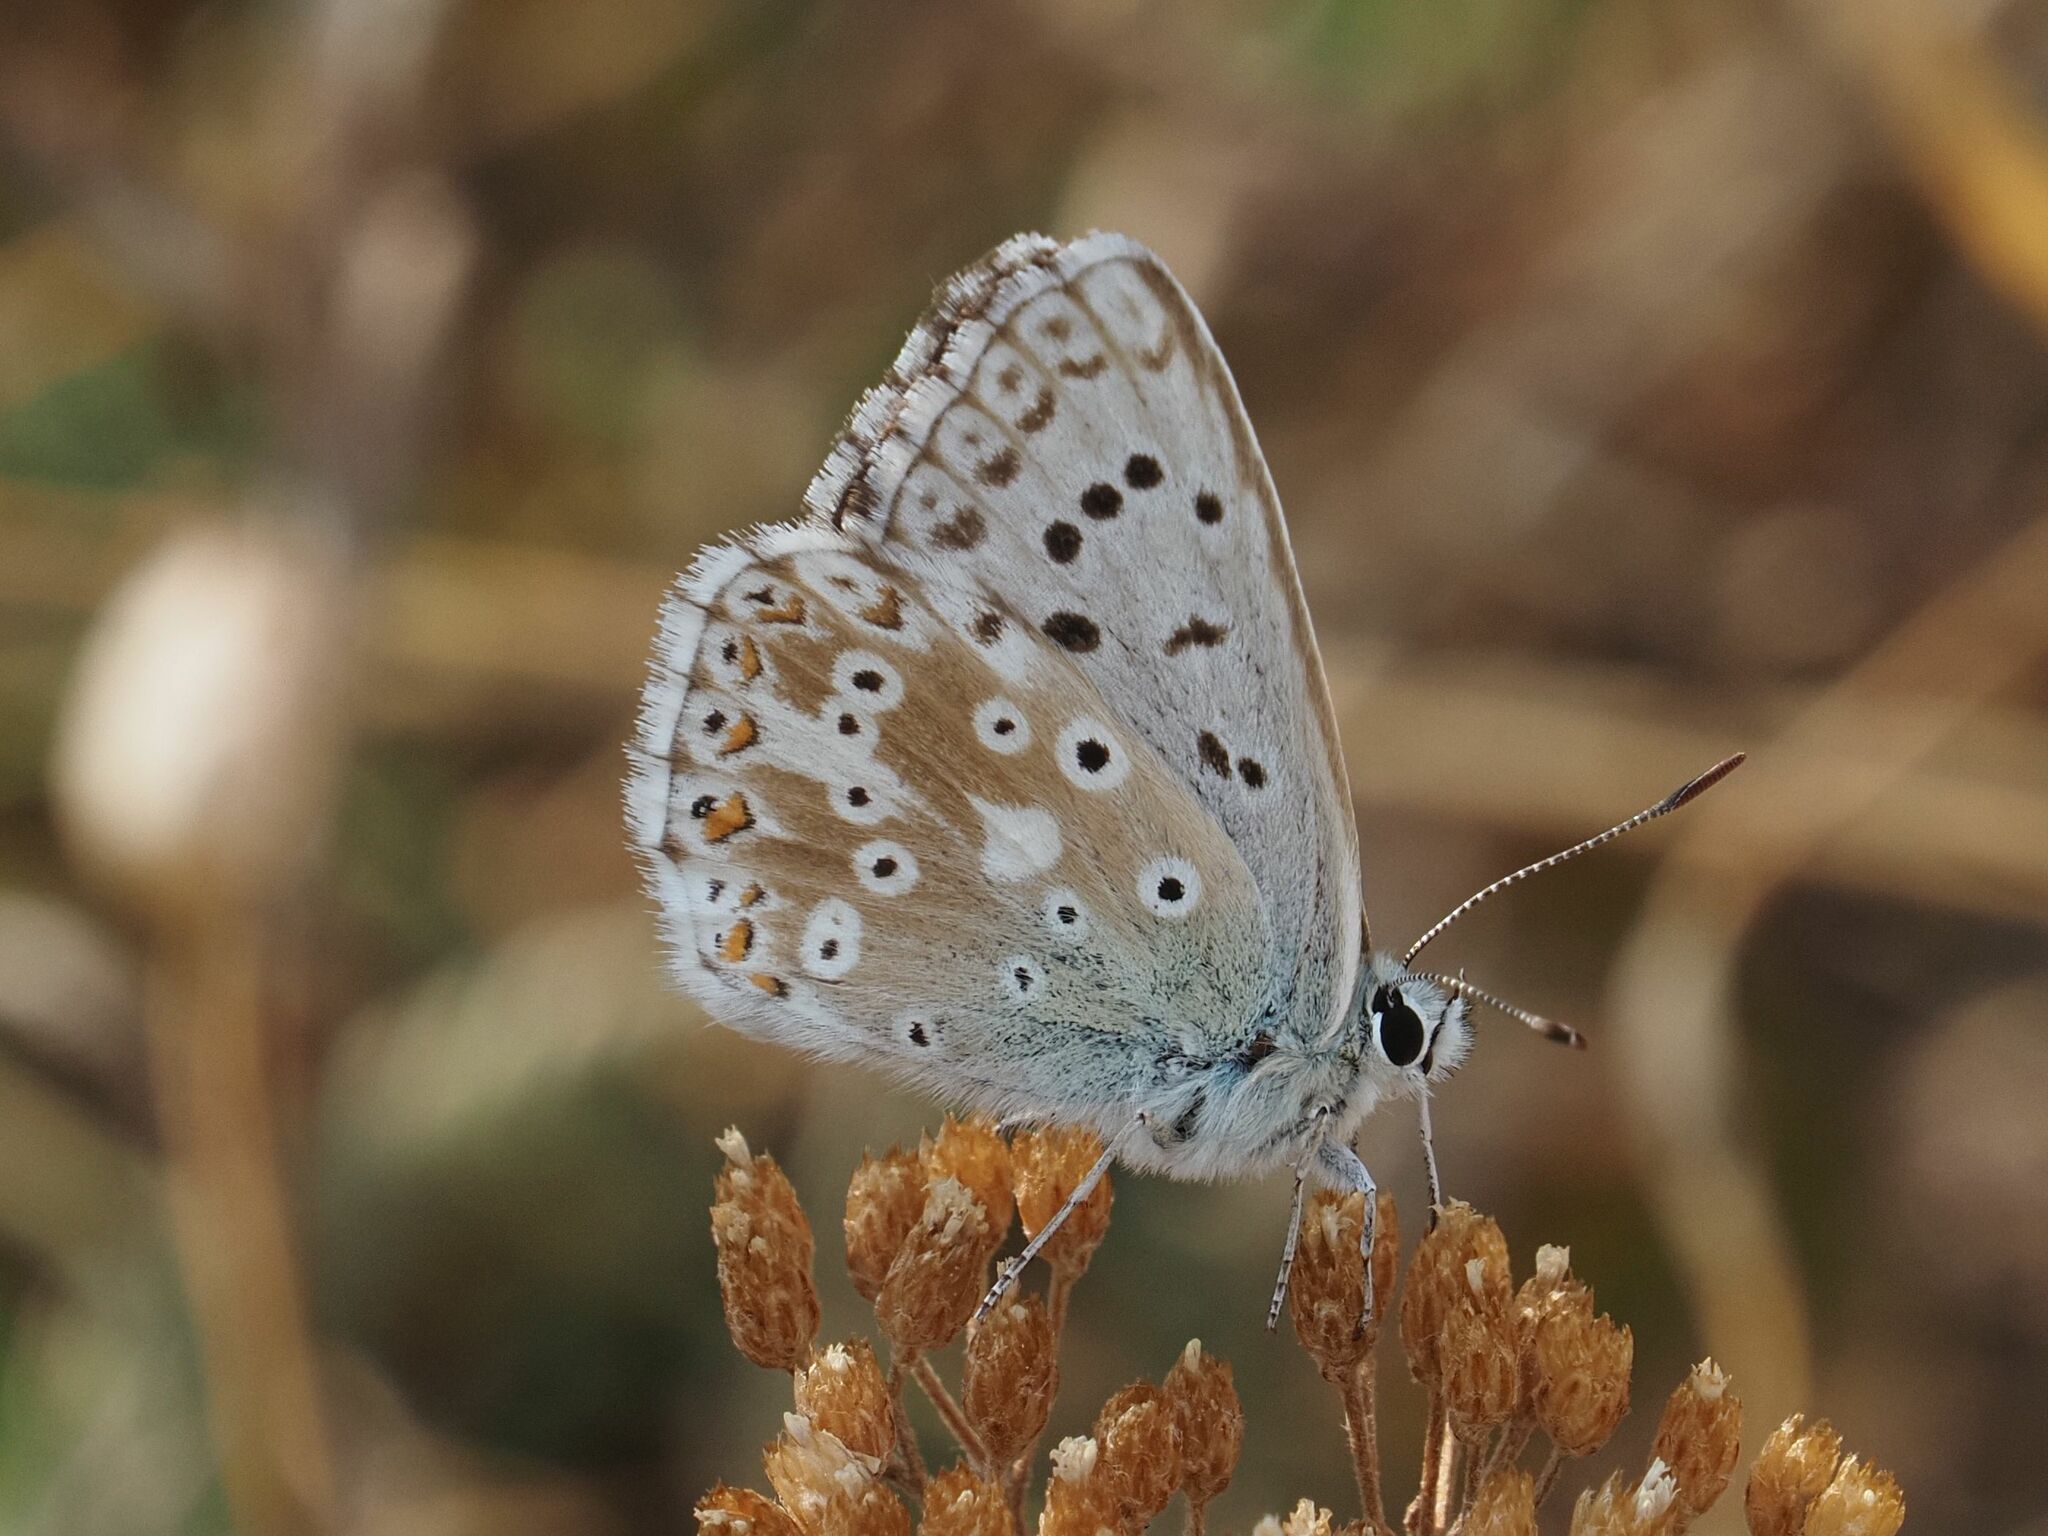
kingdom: Animalia
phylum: Arthropoda
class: Insecta
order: Lepidoptera
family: Lycaenidae
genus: Lysandra
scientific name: Lysandra coridon
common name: Chalkhill blue
